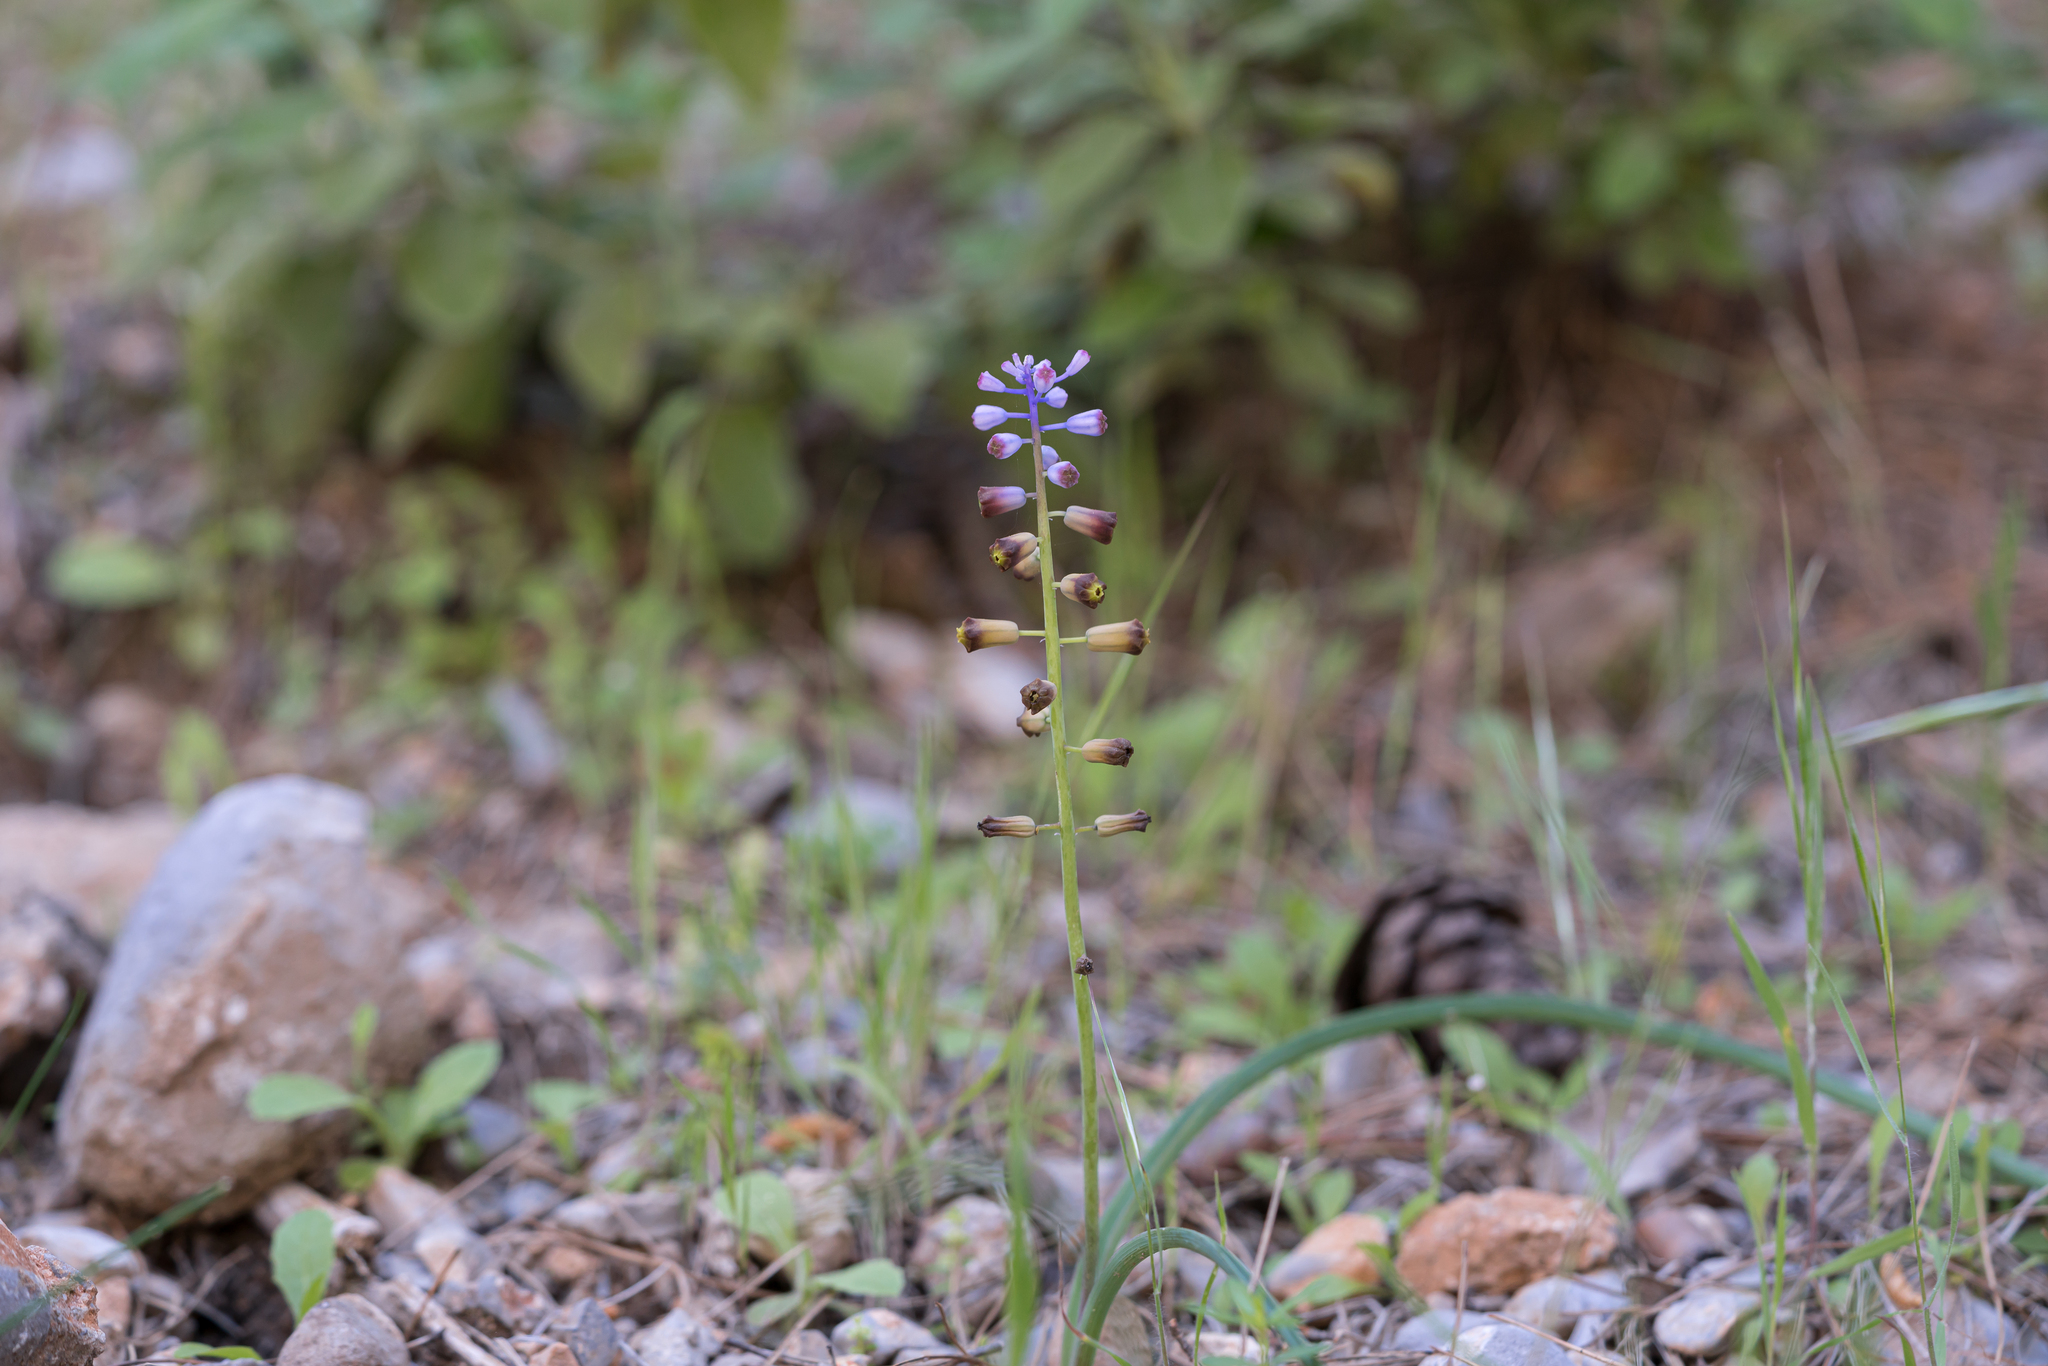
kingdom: Plantae
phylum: Tracheophyta
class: Liliopsida
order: Asparagales
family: Asparagaceae
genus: Muscari
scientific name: Muscari weissii
